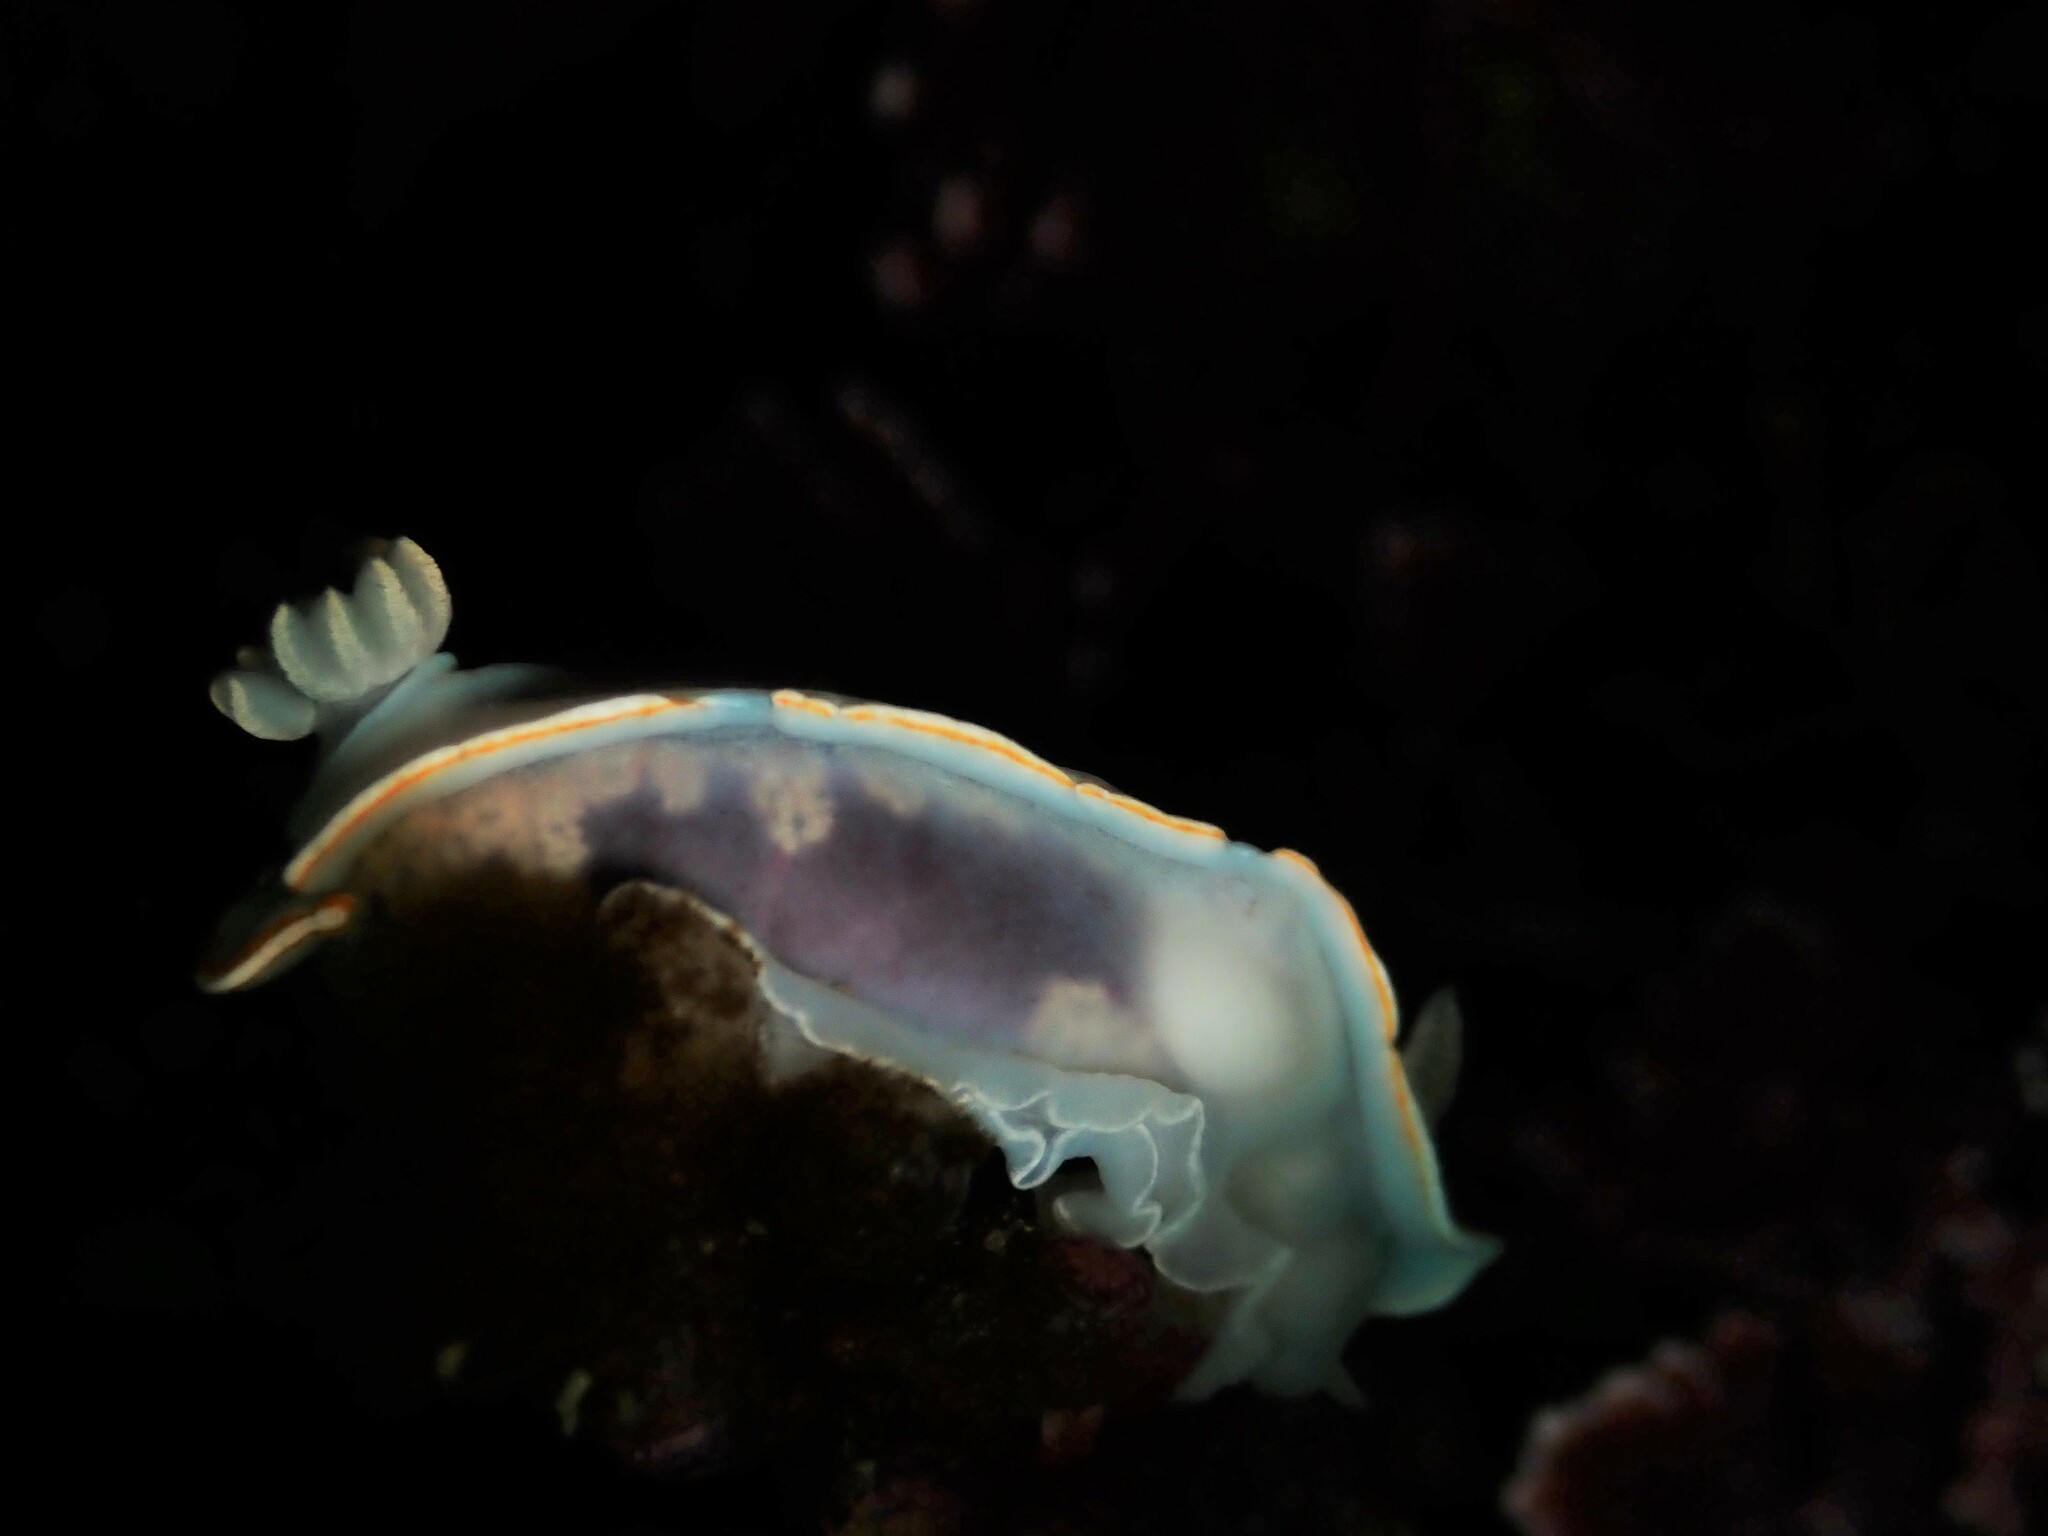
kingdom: Animalia
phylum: Mollusca
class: Gastropoda
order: Nudibranchia
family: Chromodorididae
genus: Goniobranchus
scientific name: Goniobranchus aureomarginatus
